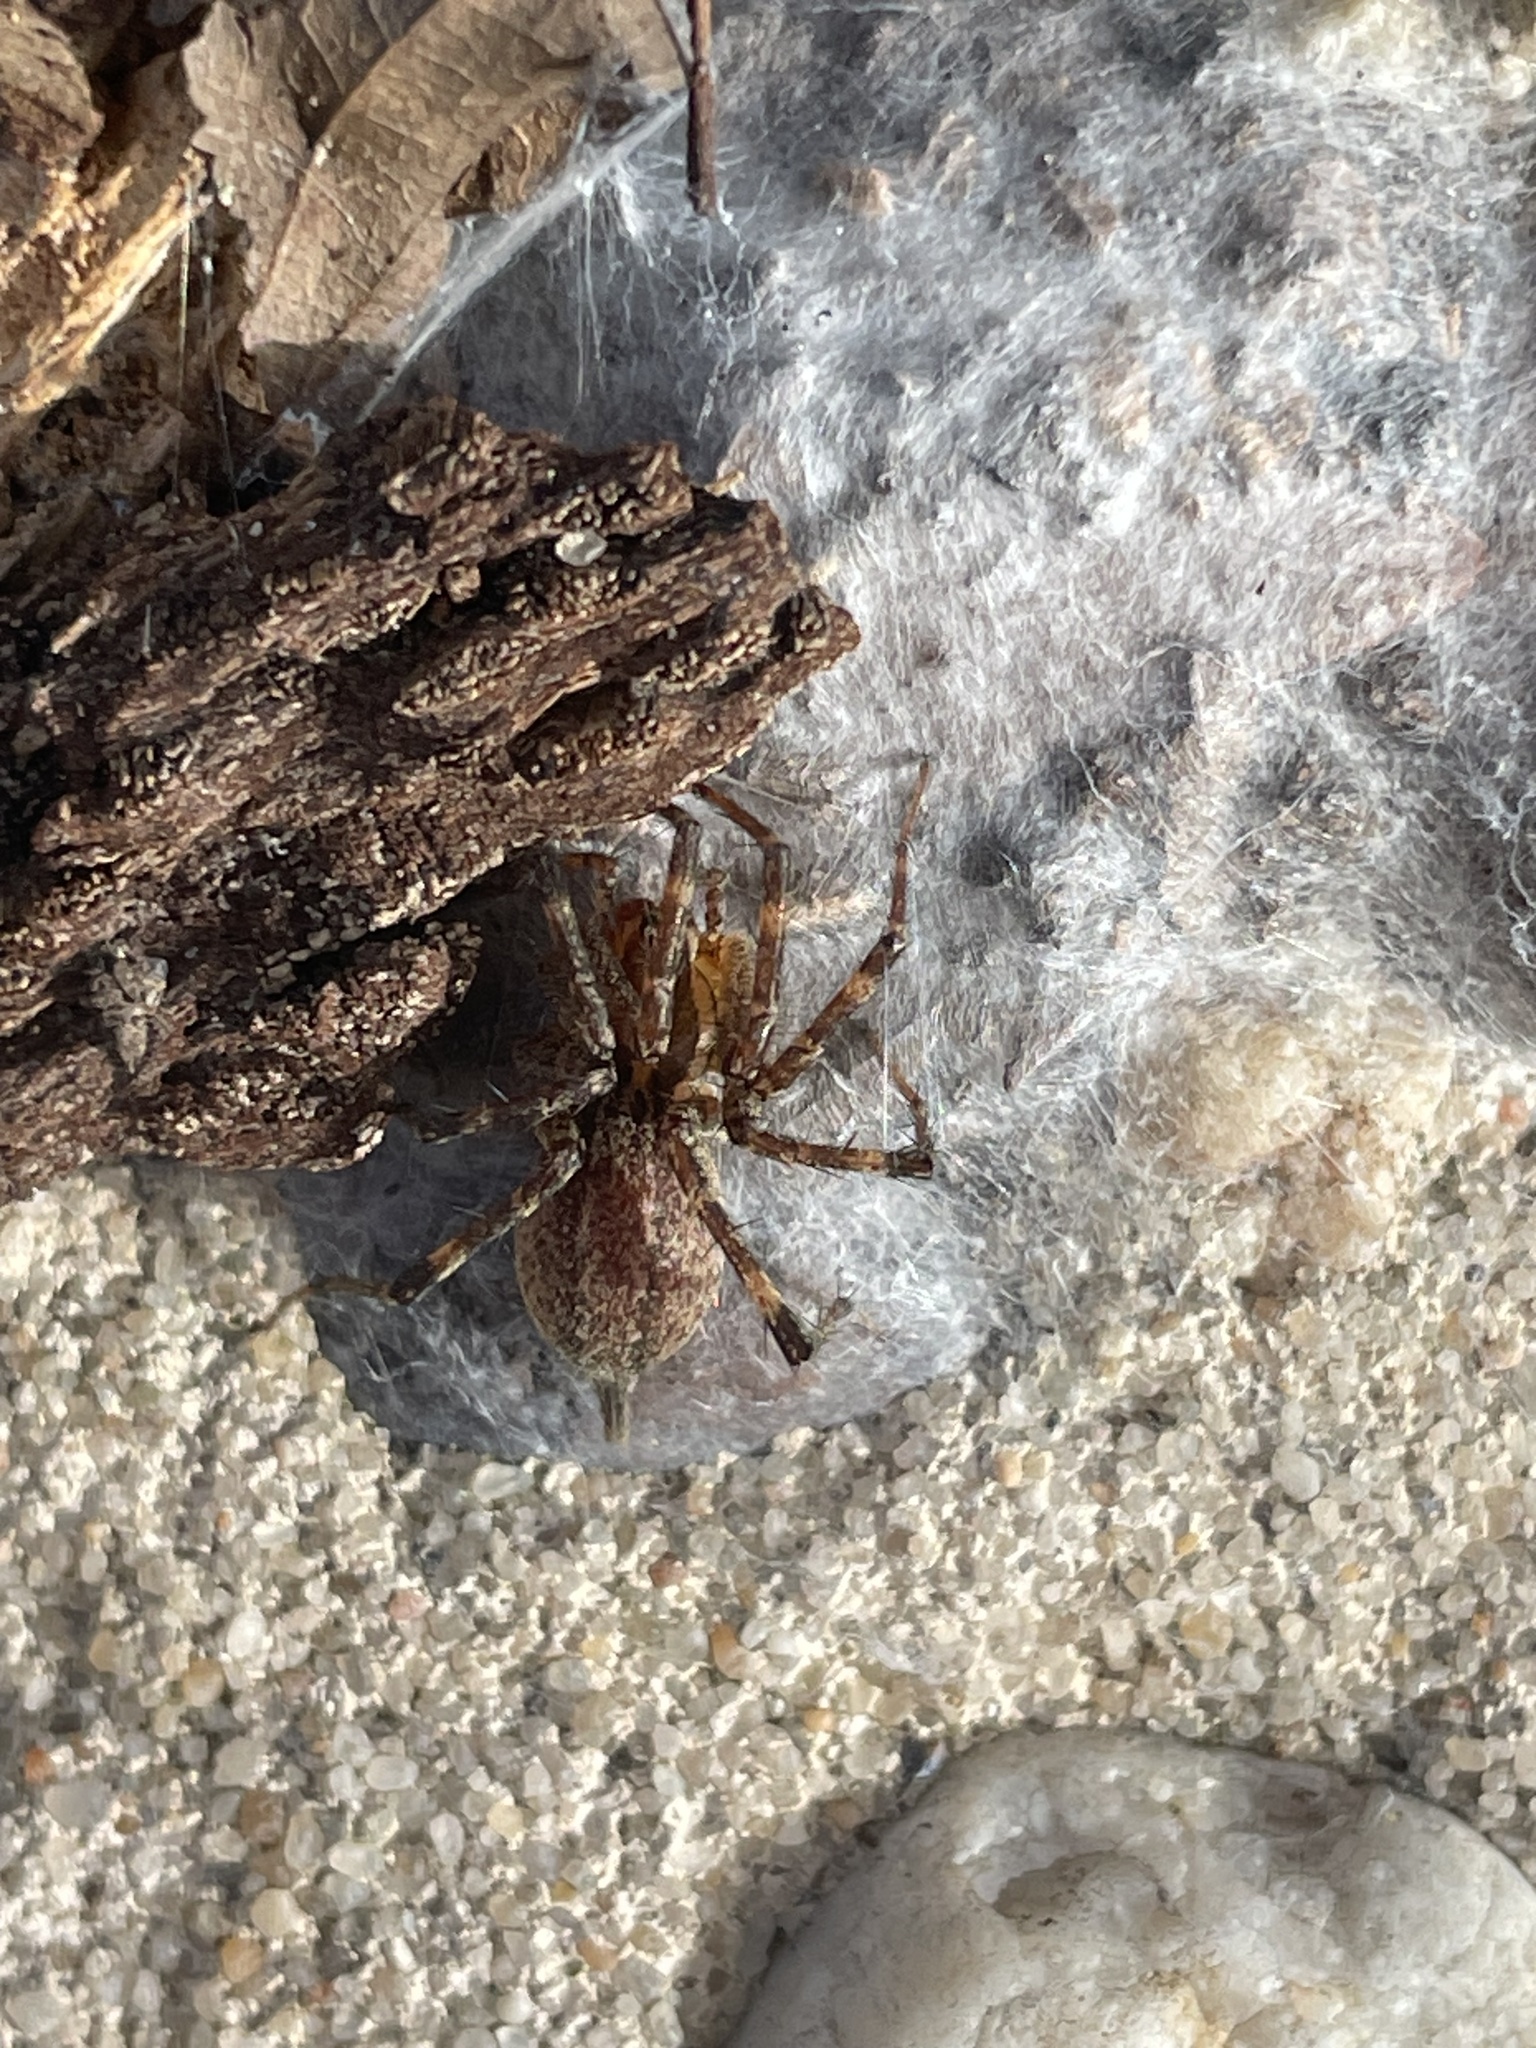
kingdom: Animalia
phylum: Arthropoda
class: Arachnida
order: Araneae
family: Agelenidae
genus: Agelenopsis
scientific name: Agelenopsis
